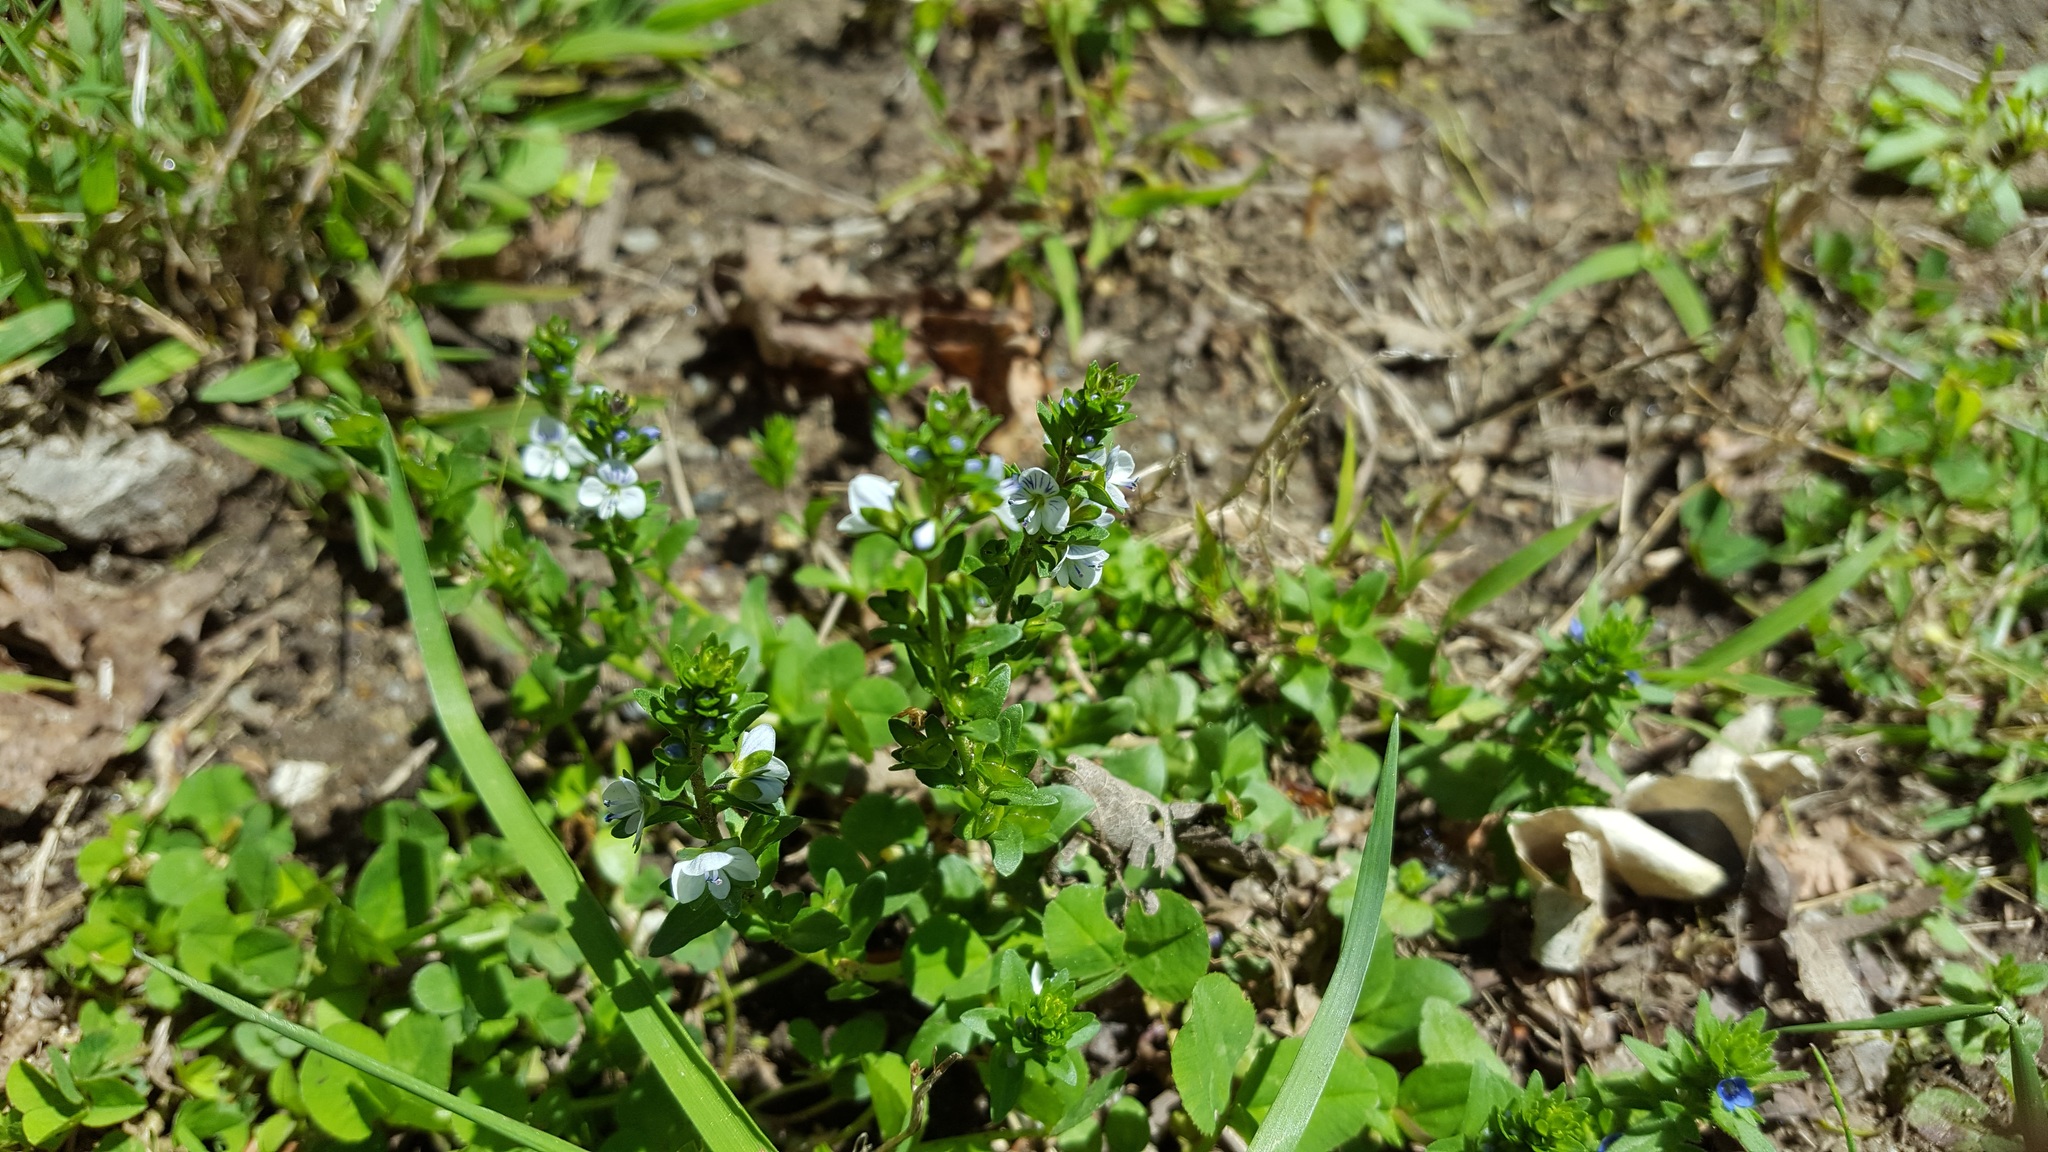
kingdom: Plantae
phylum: Tracheophyta
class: Magnoliopsida
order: Lamiales
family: Plantaginaceae
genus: Veronica
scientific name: Veronica serpyllifolia
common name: Thyme-leaved speedwell
